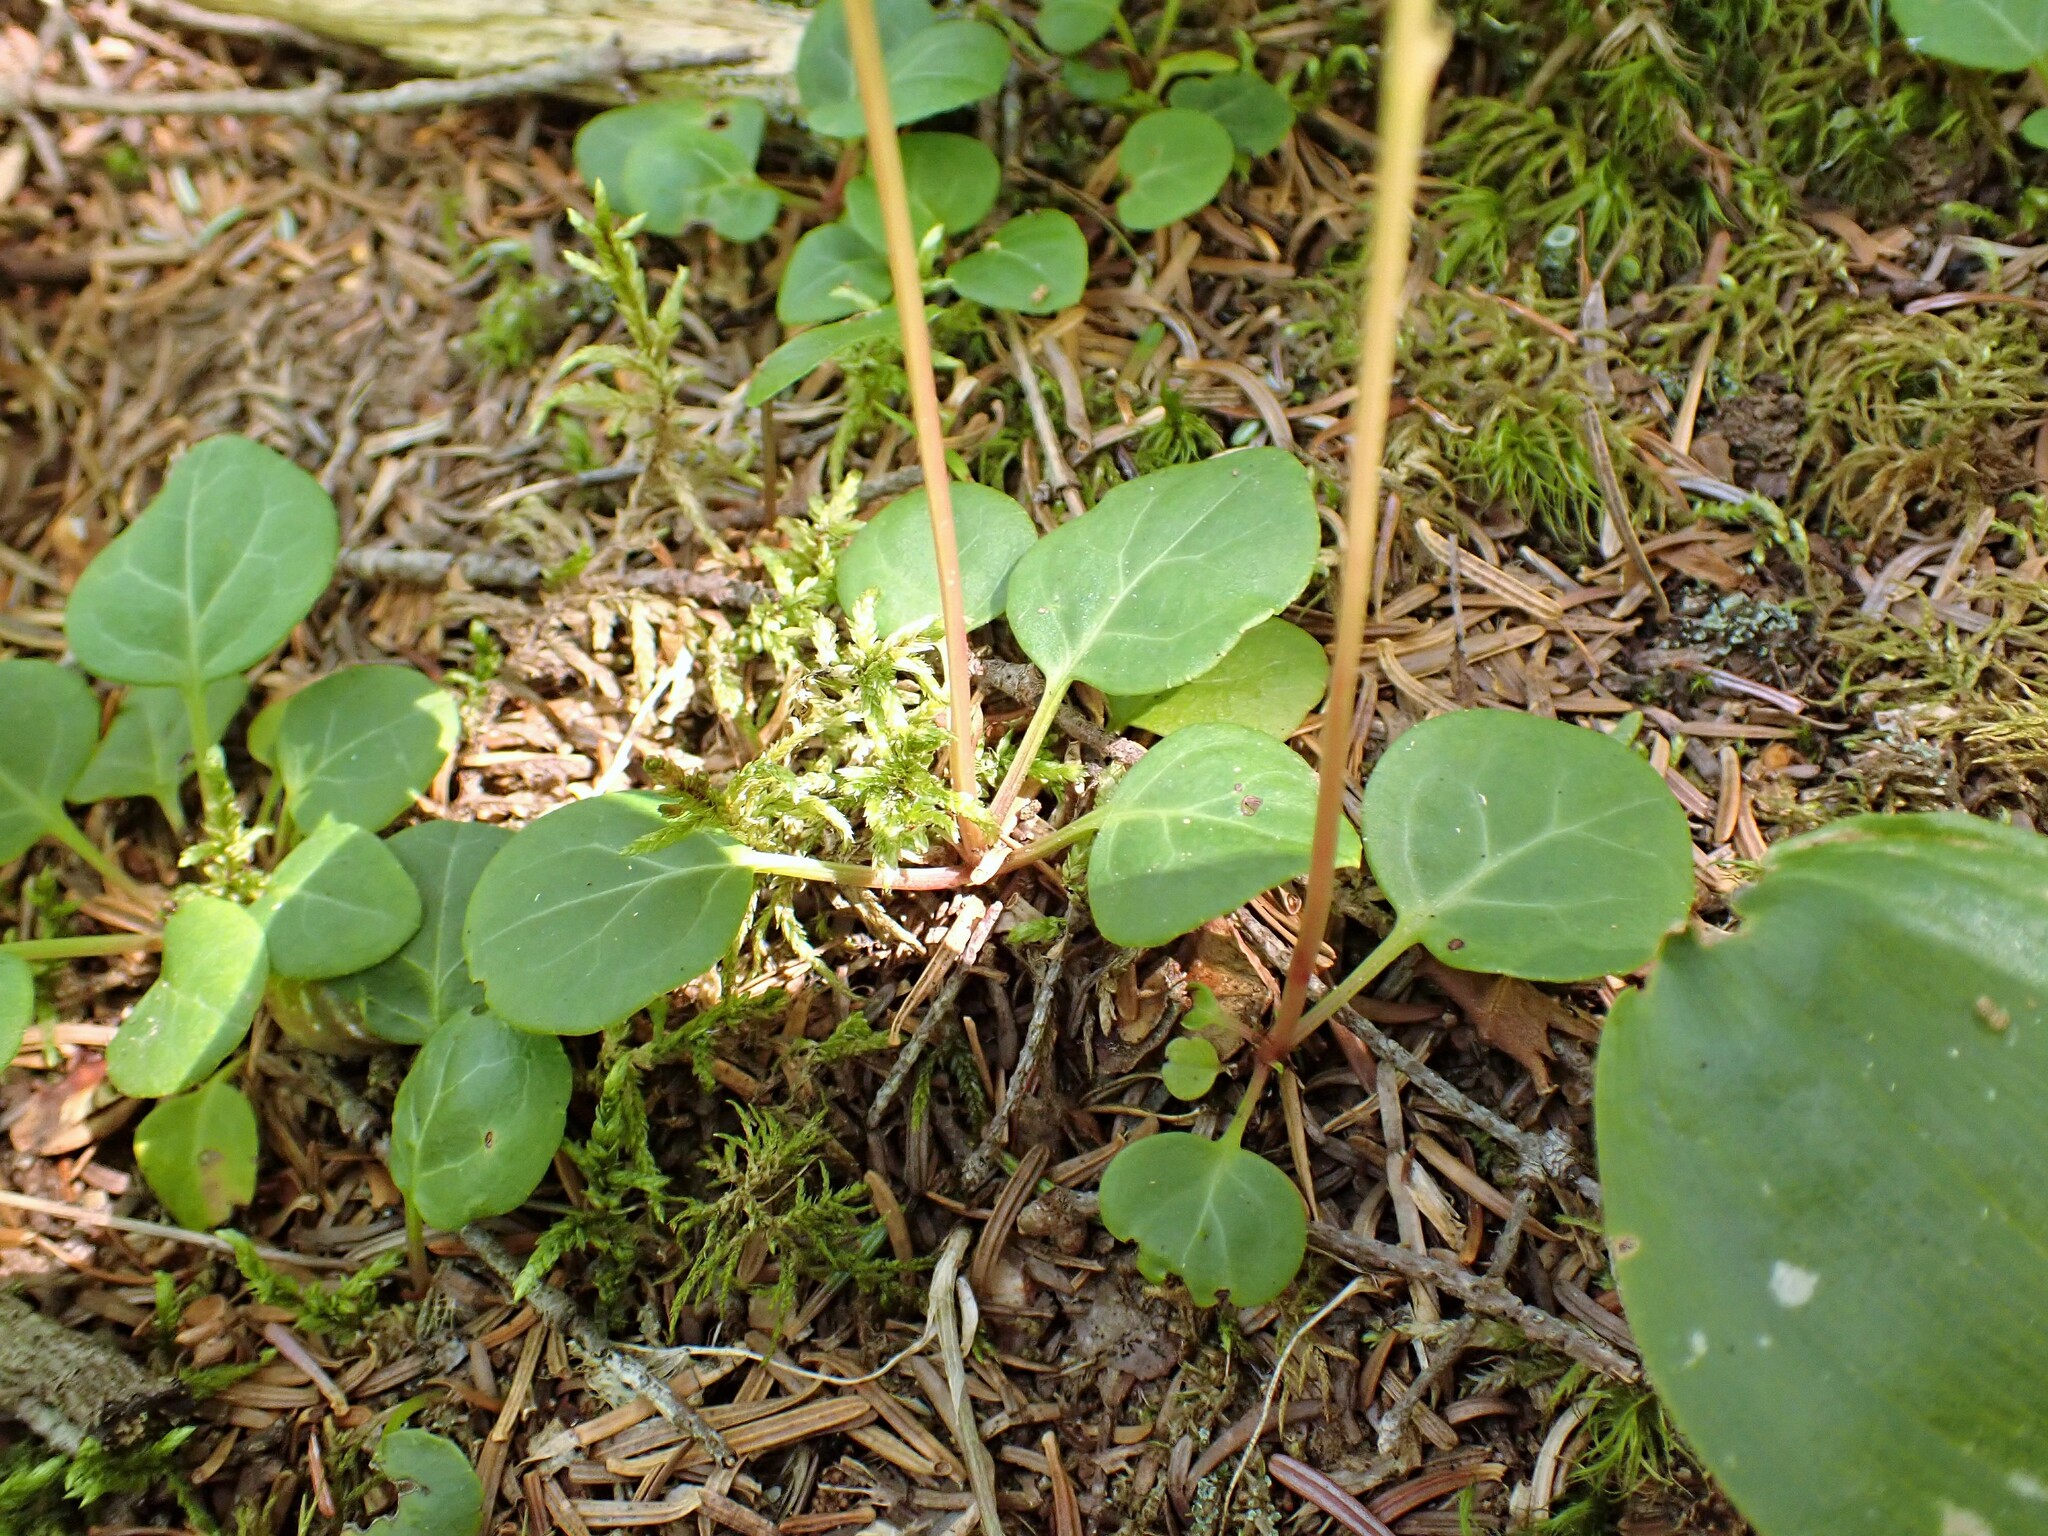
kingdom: Plantae
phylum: Tracheophyta
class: Magnoliopsida
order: Ericales
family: Ericaceae
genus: Pyrola
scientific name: Pyrola chlorantha
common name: Green wintergreen
